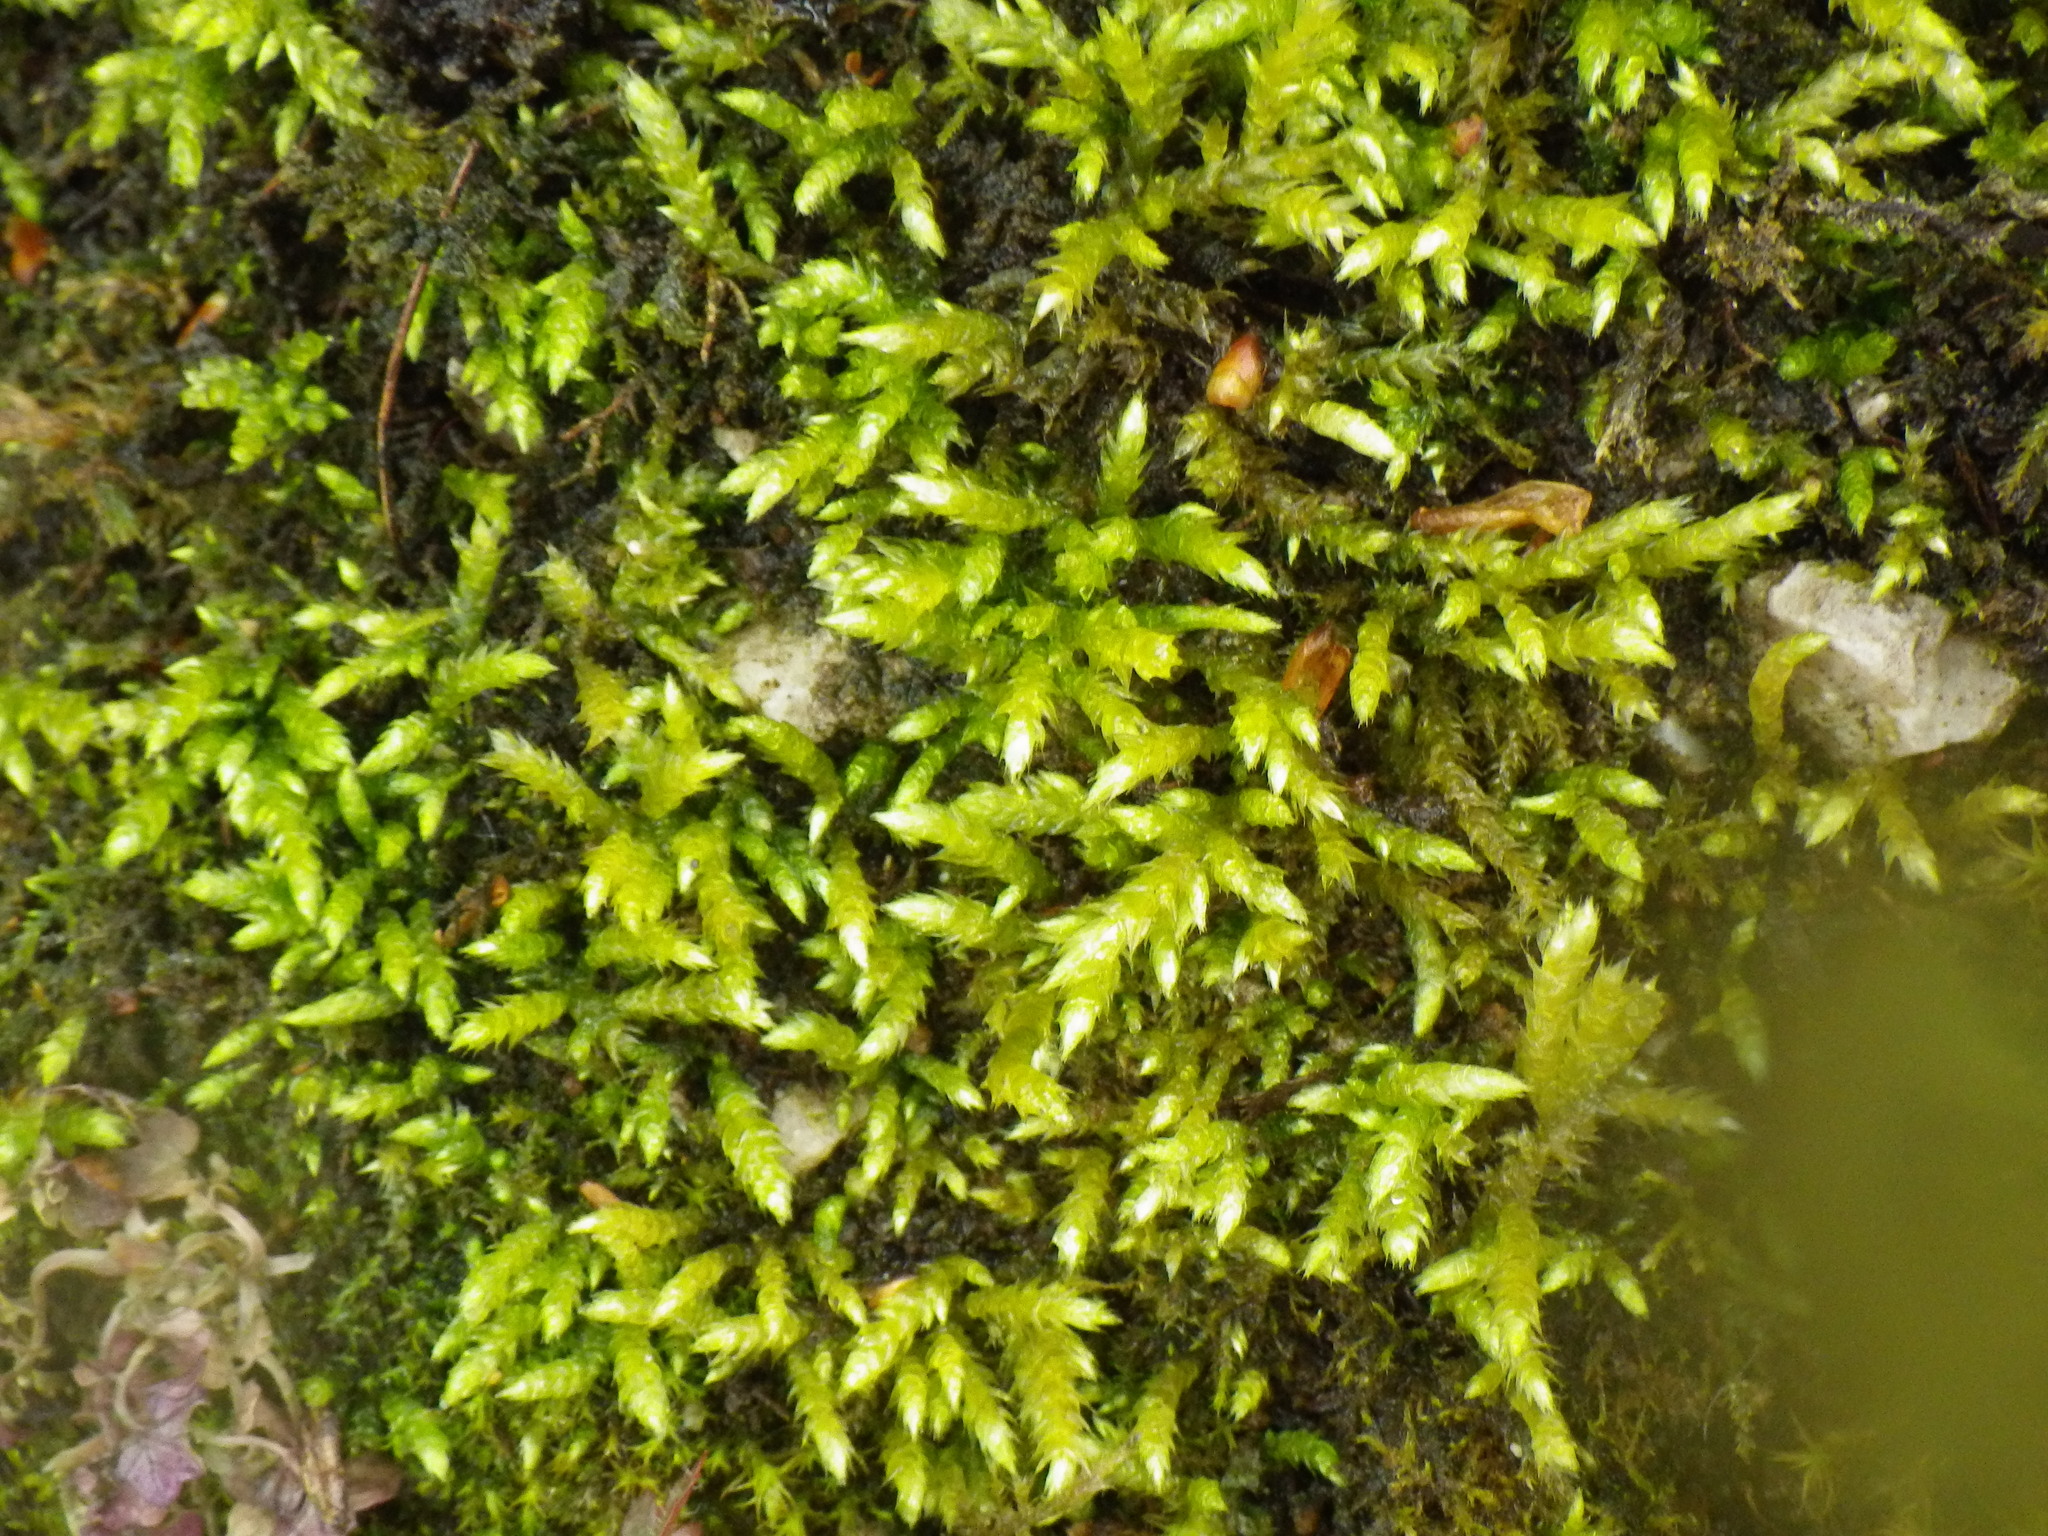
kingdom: Plantae
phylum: Bryophyta
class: Bryopsida
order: Hypnales
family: Brachytheciaceae
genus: Brachythecium
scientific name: Brachythecium rivulare
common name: River ragged moss
